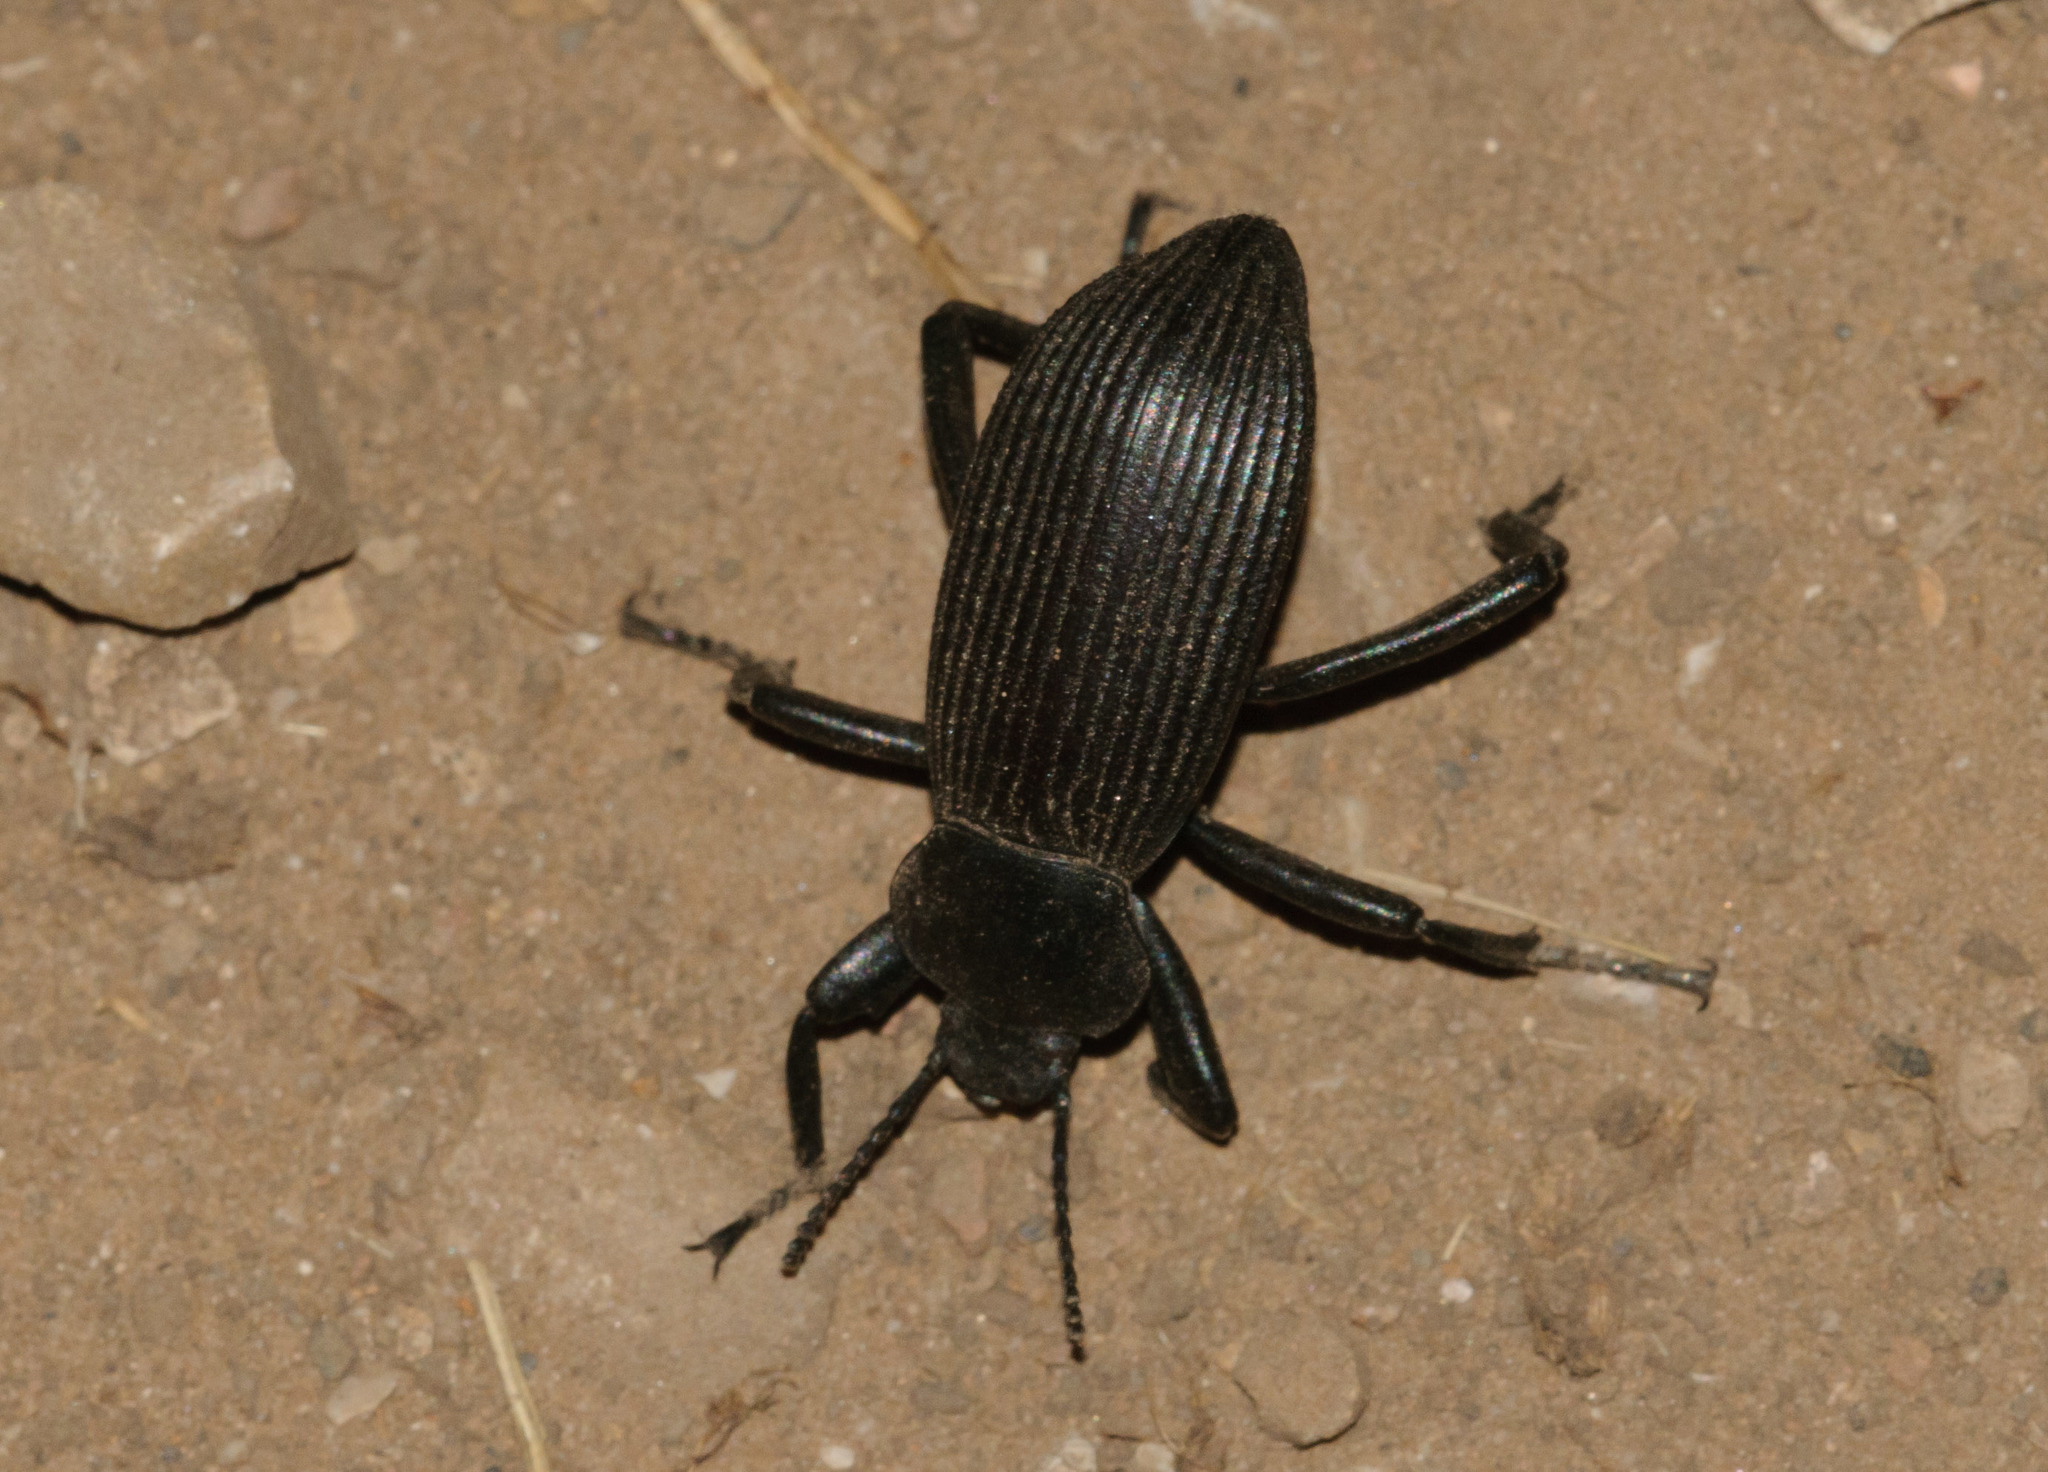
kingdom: Animalia
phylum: Arthropoda
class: Insecta
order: Coleoptera
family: Tenebrionidae
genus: Eleodes
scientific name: Eleodes obscura
